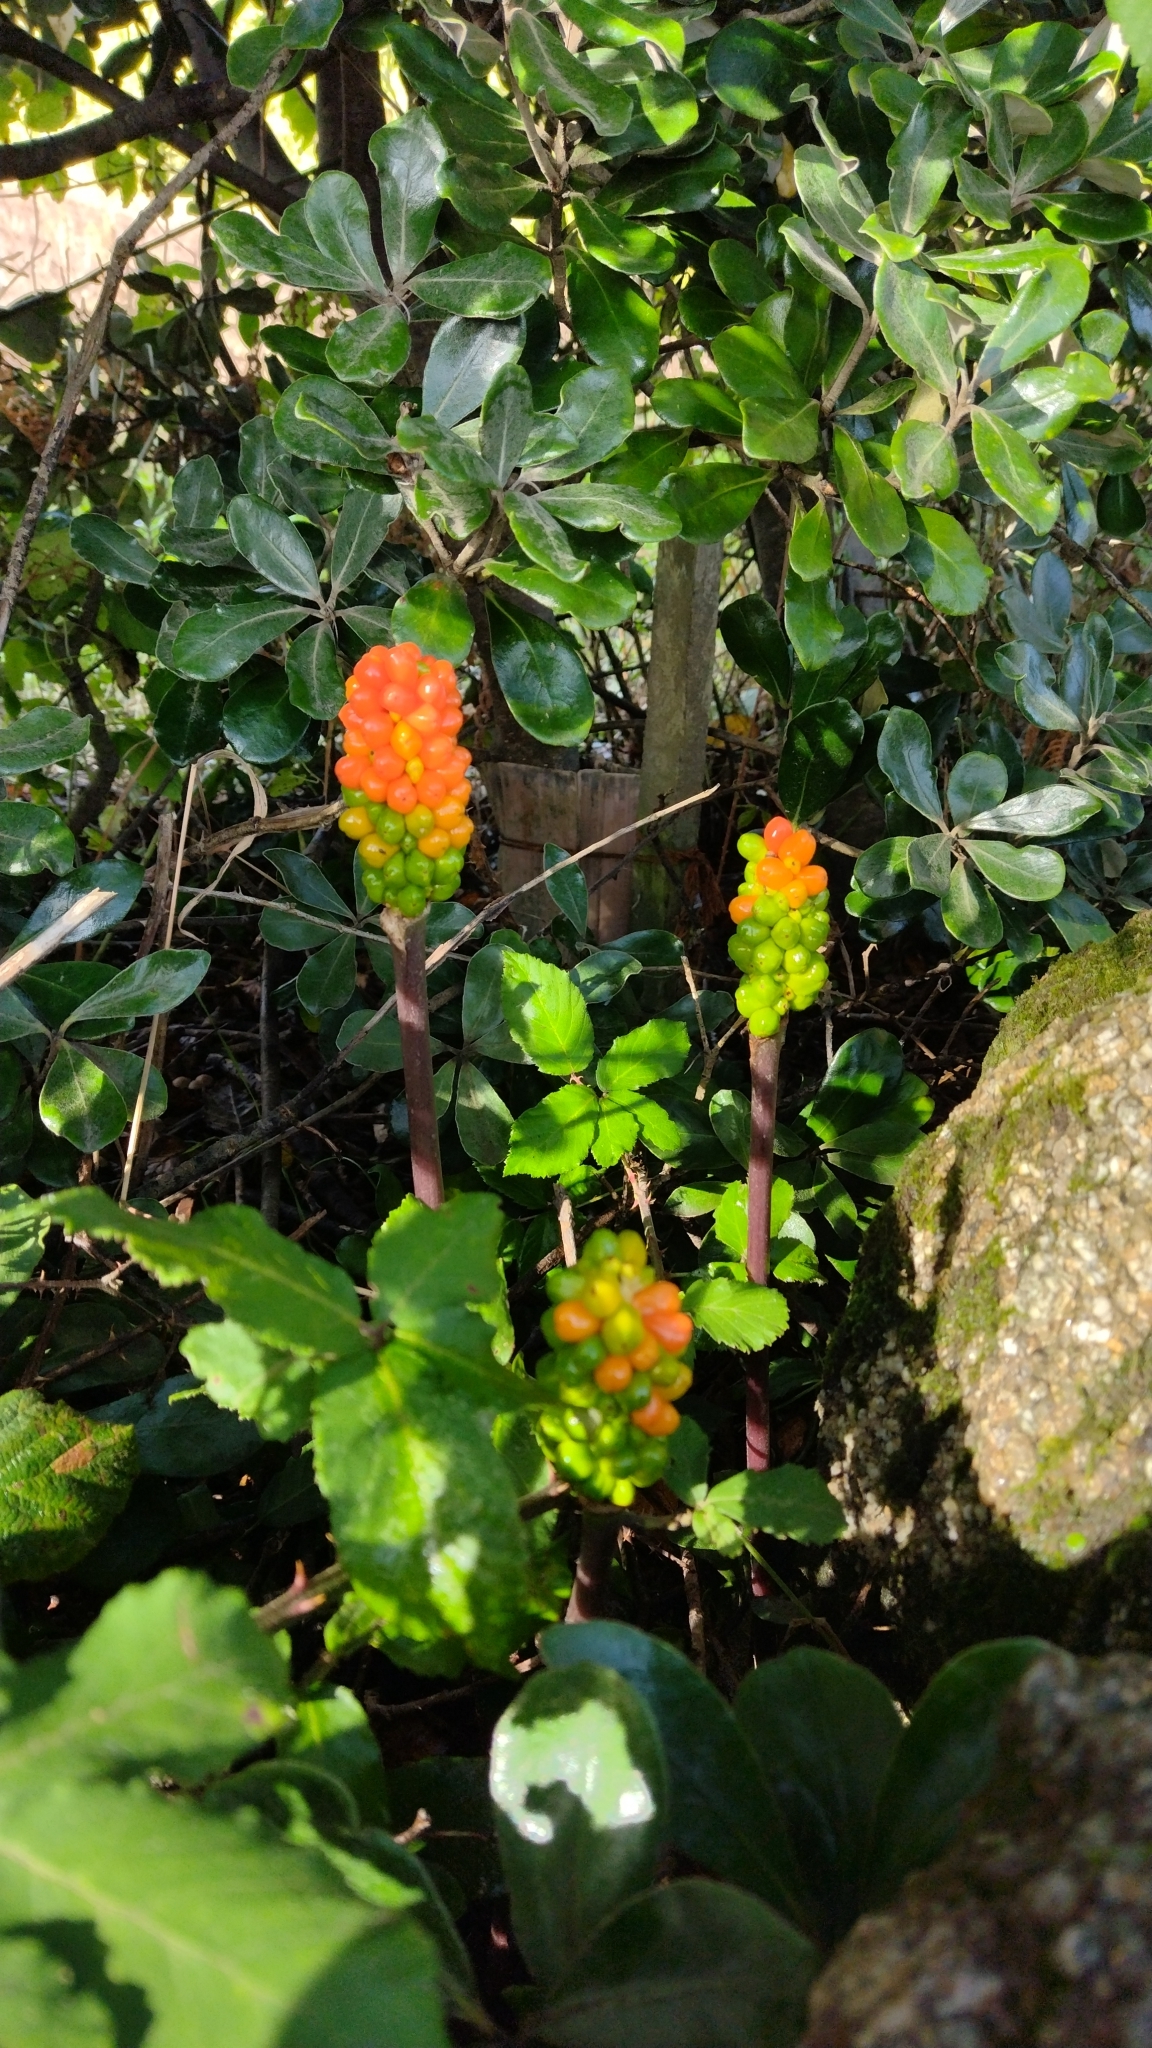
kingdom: Plantae
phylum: Tracheophyta
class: Liliopsida
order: Alismatales
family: Araceae
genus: Arum
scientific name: Arum maculatum
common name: Lords-and-ladies
